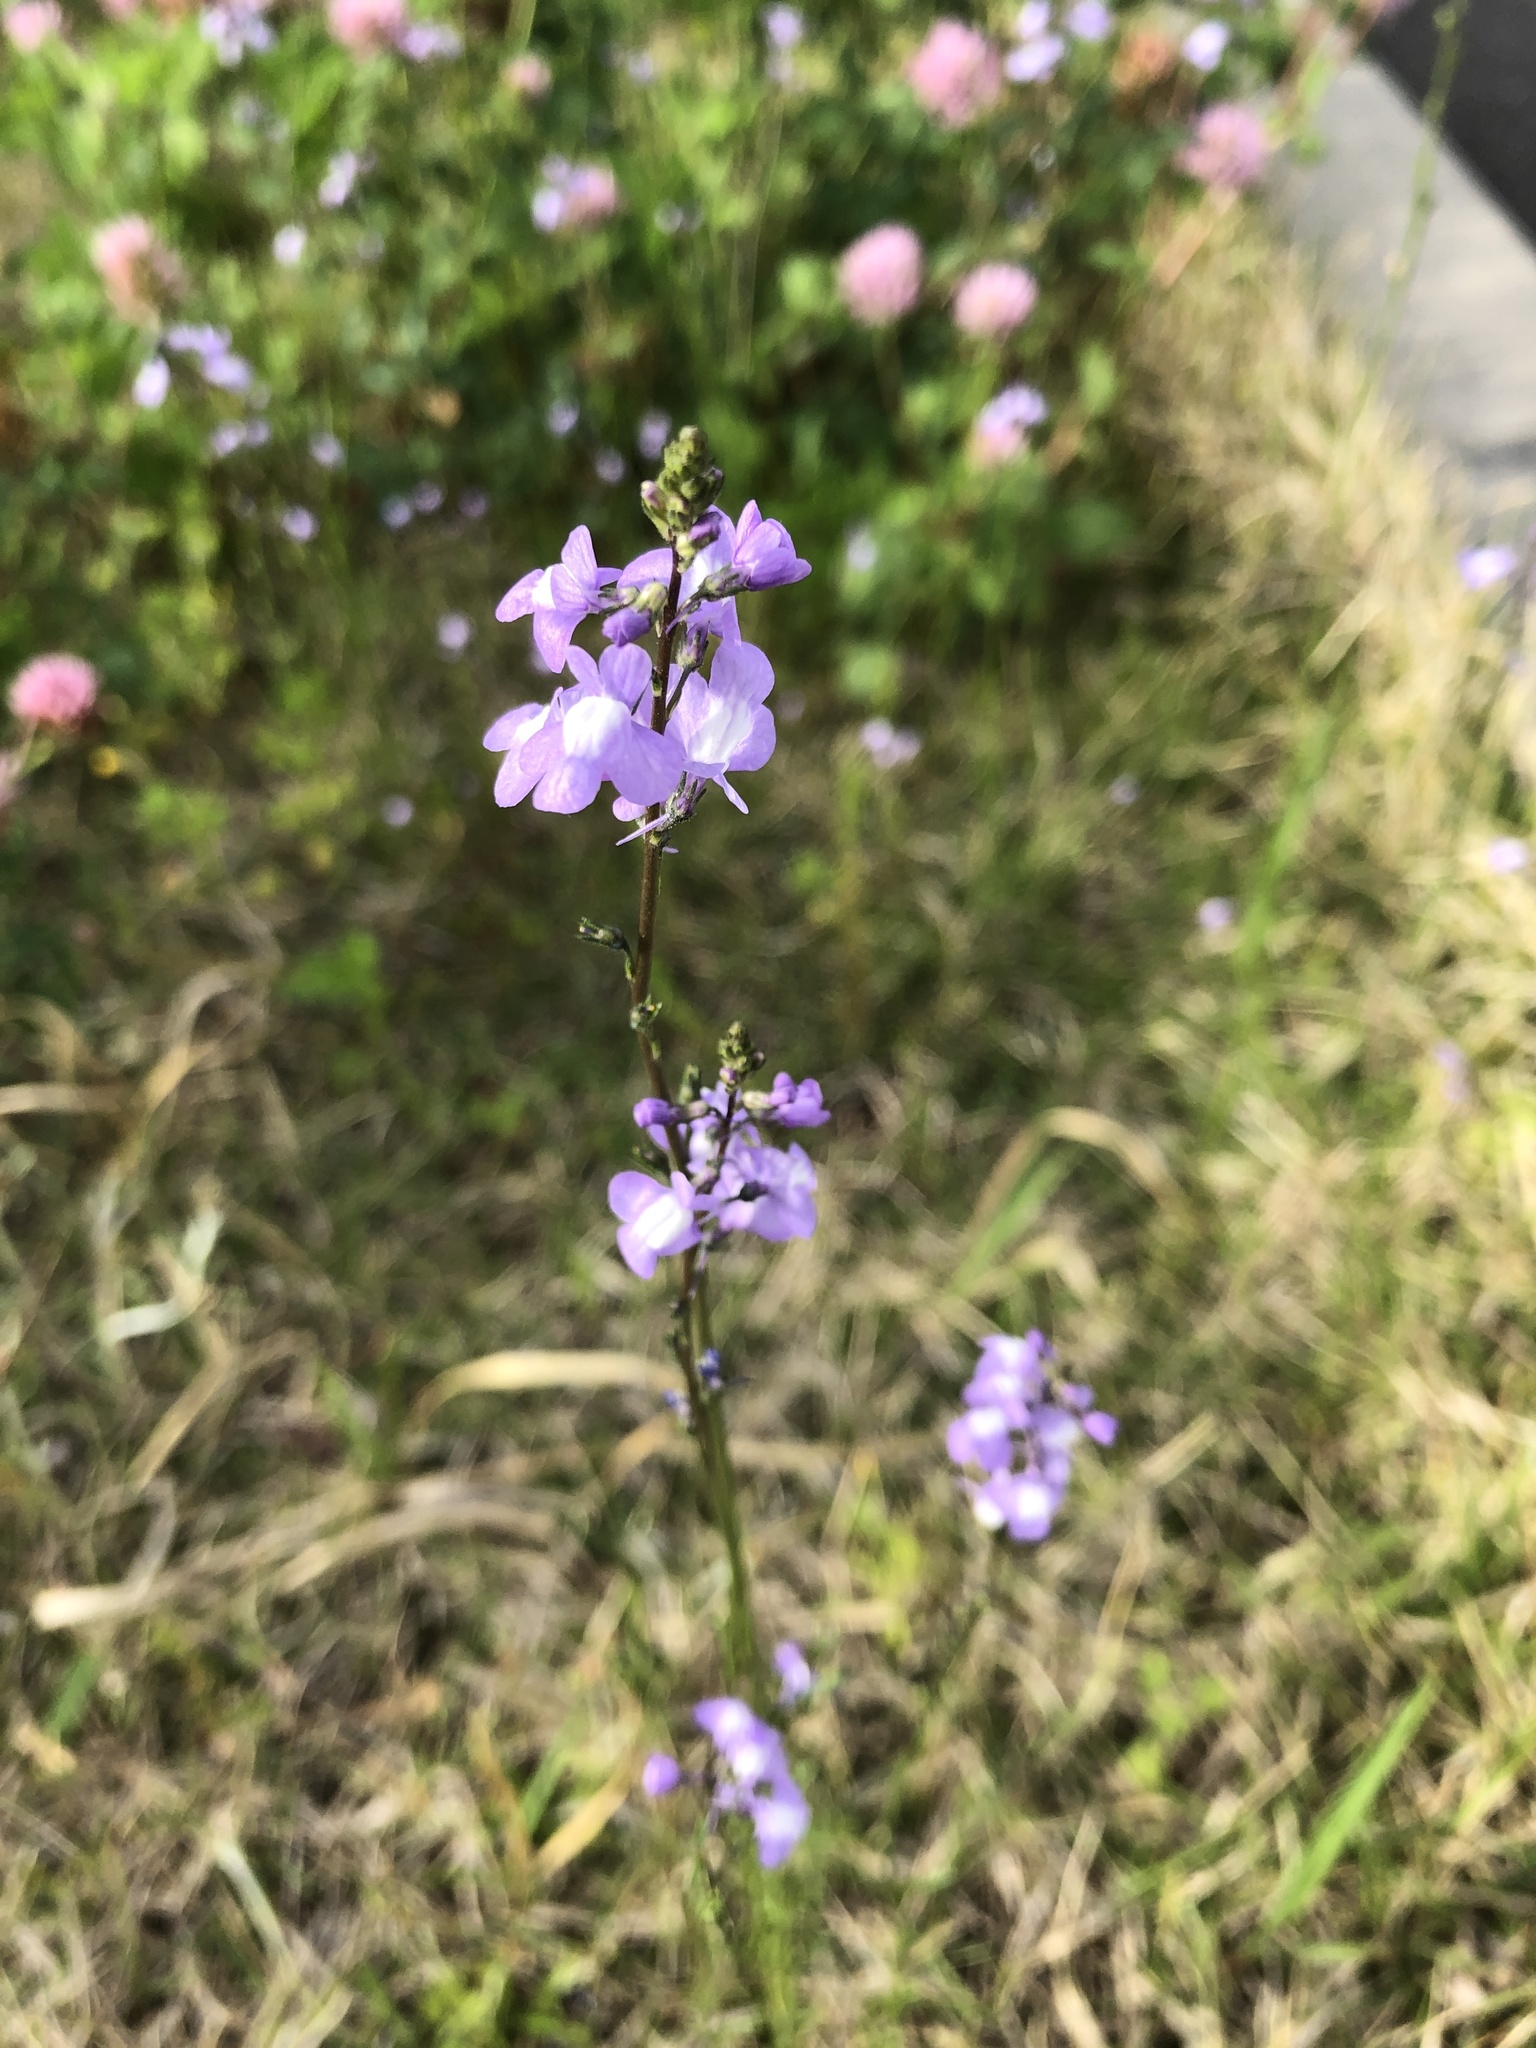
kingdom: Plantae
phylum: Tracheophyta
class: Magnoliopsida
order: Lamiales
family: Plantaginaceae
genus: Nuttallanthus
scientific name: Nuttallanthus canadensis
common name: Blue toadflax
